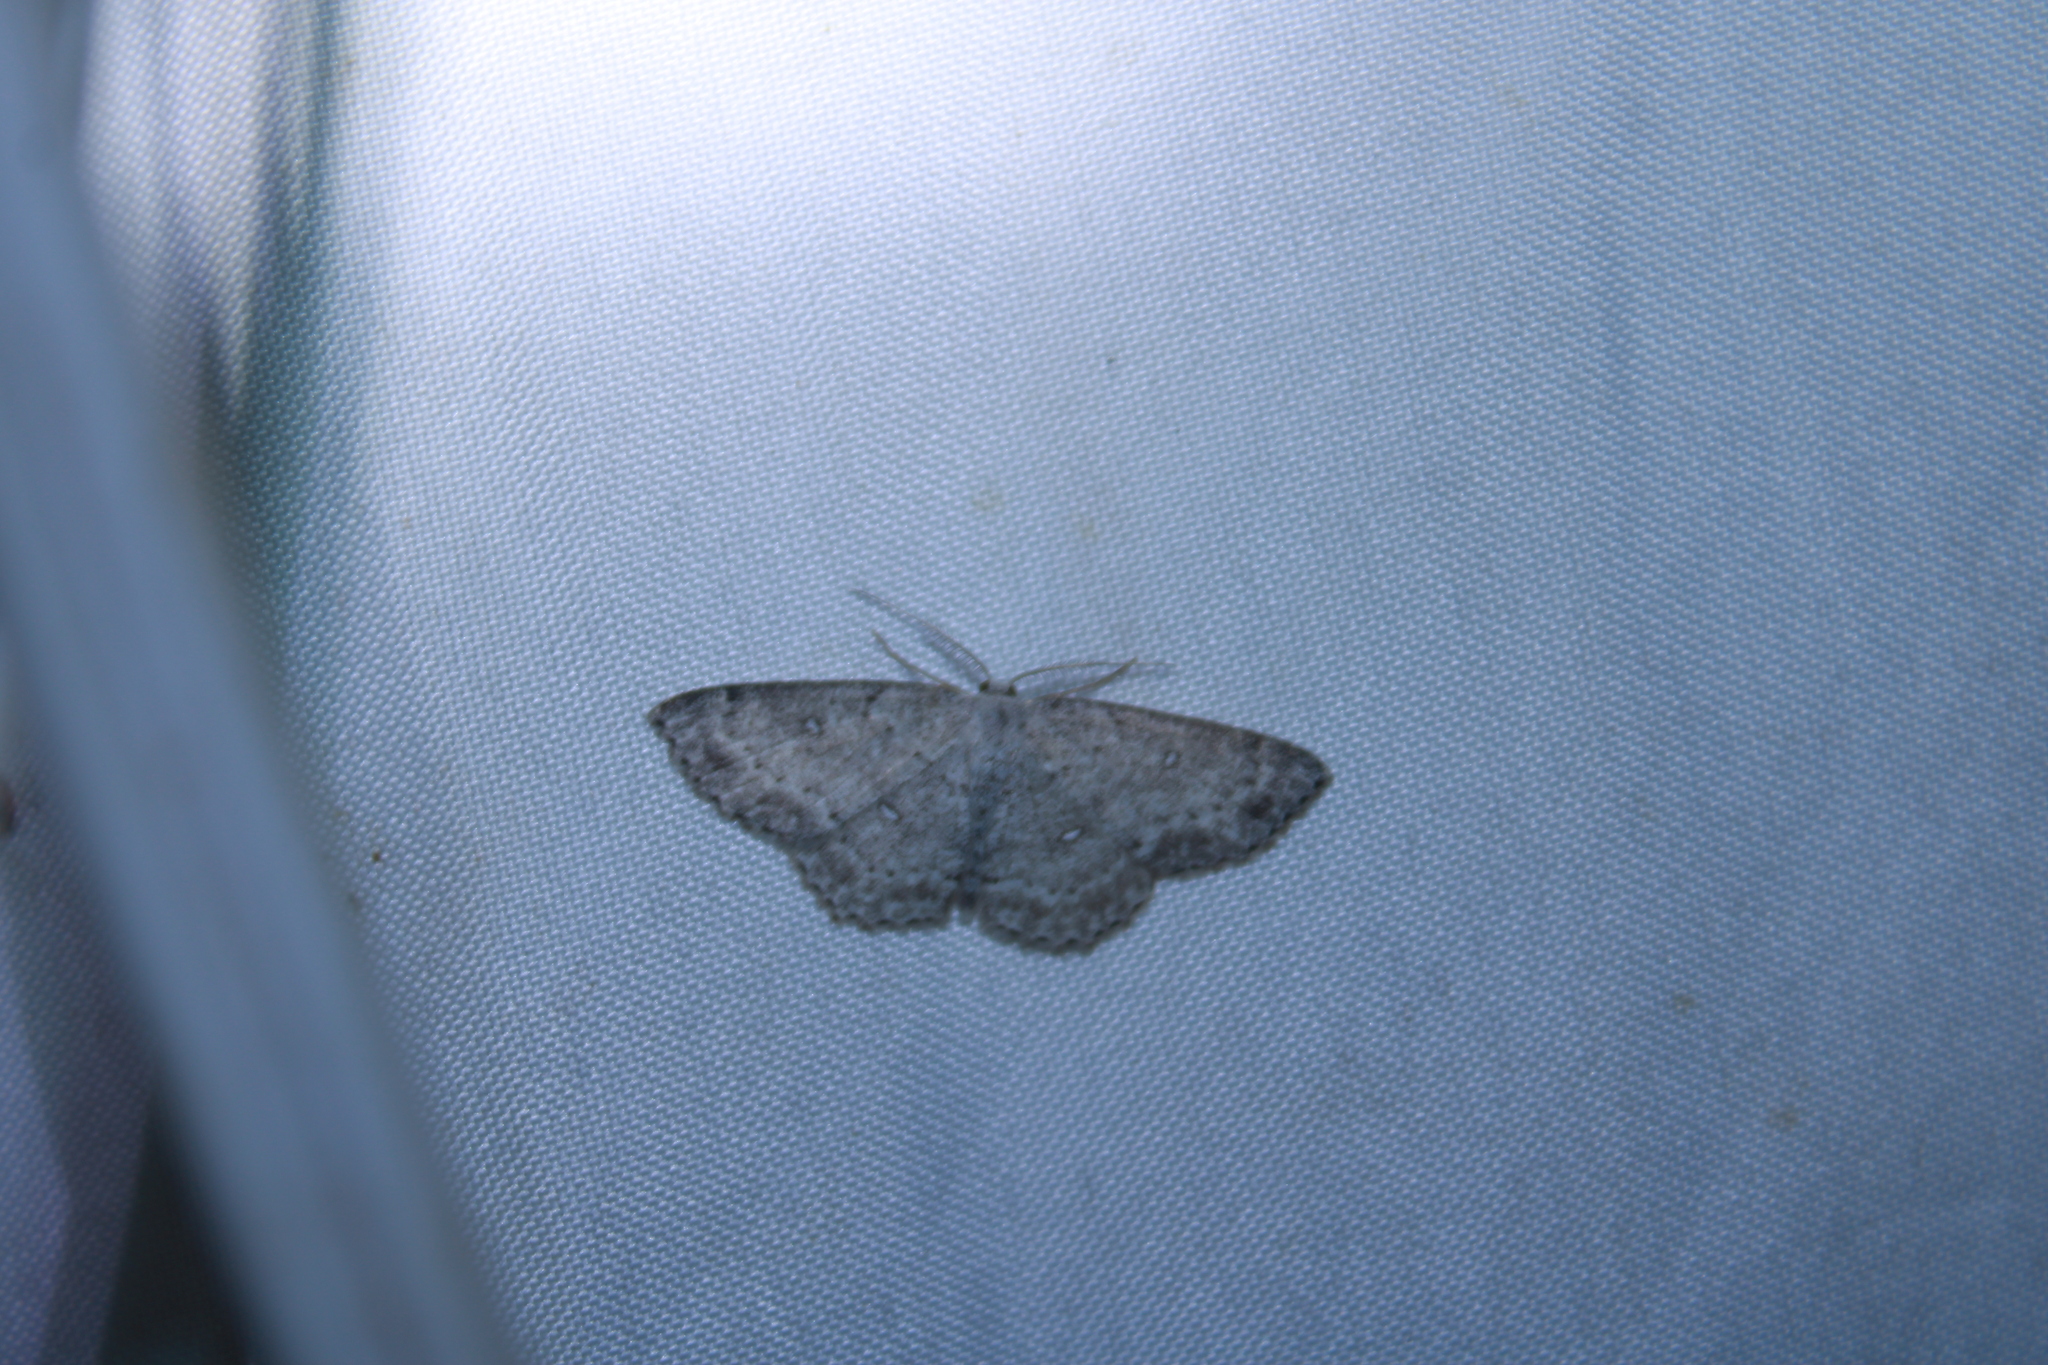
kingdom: Animalia
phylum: Arthropoda
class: Insecta
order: Lepidoptera
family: Geometridae
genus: Cyclophora
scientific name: Cyclophora pendulinaria
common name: Sweet fern geometer
